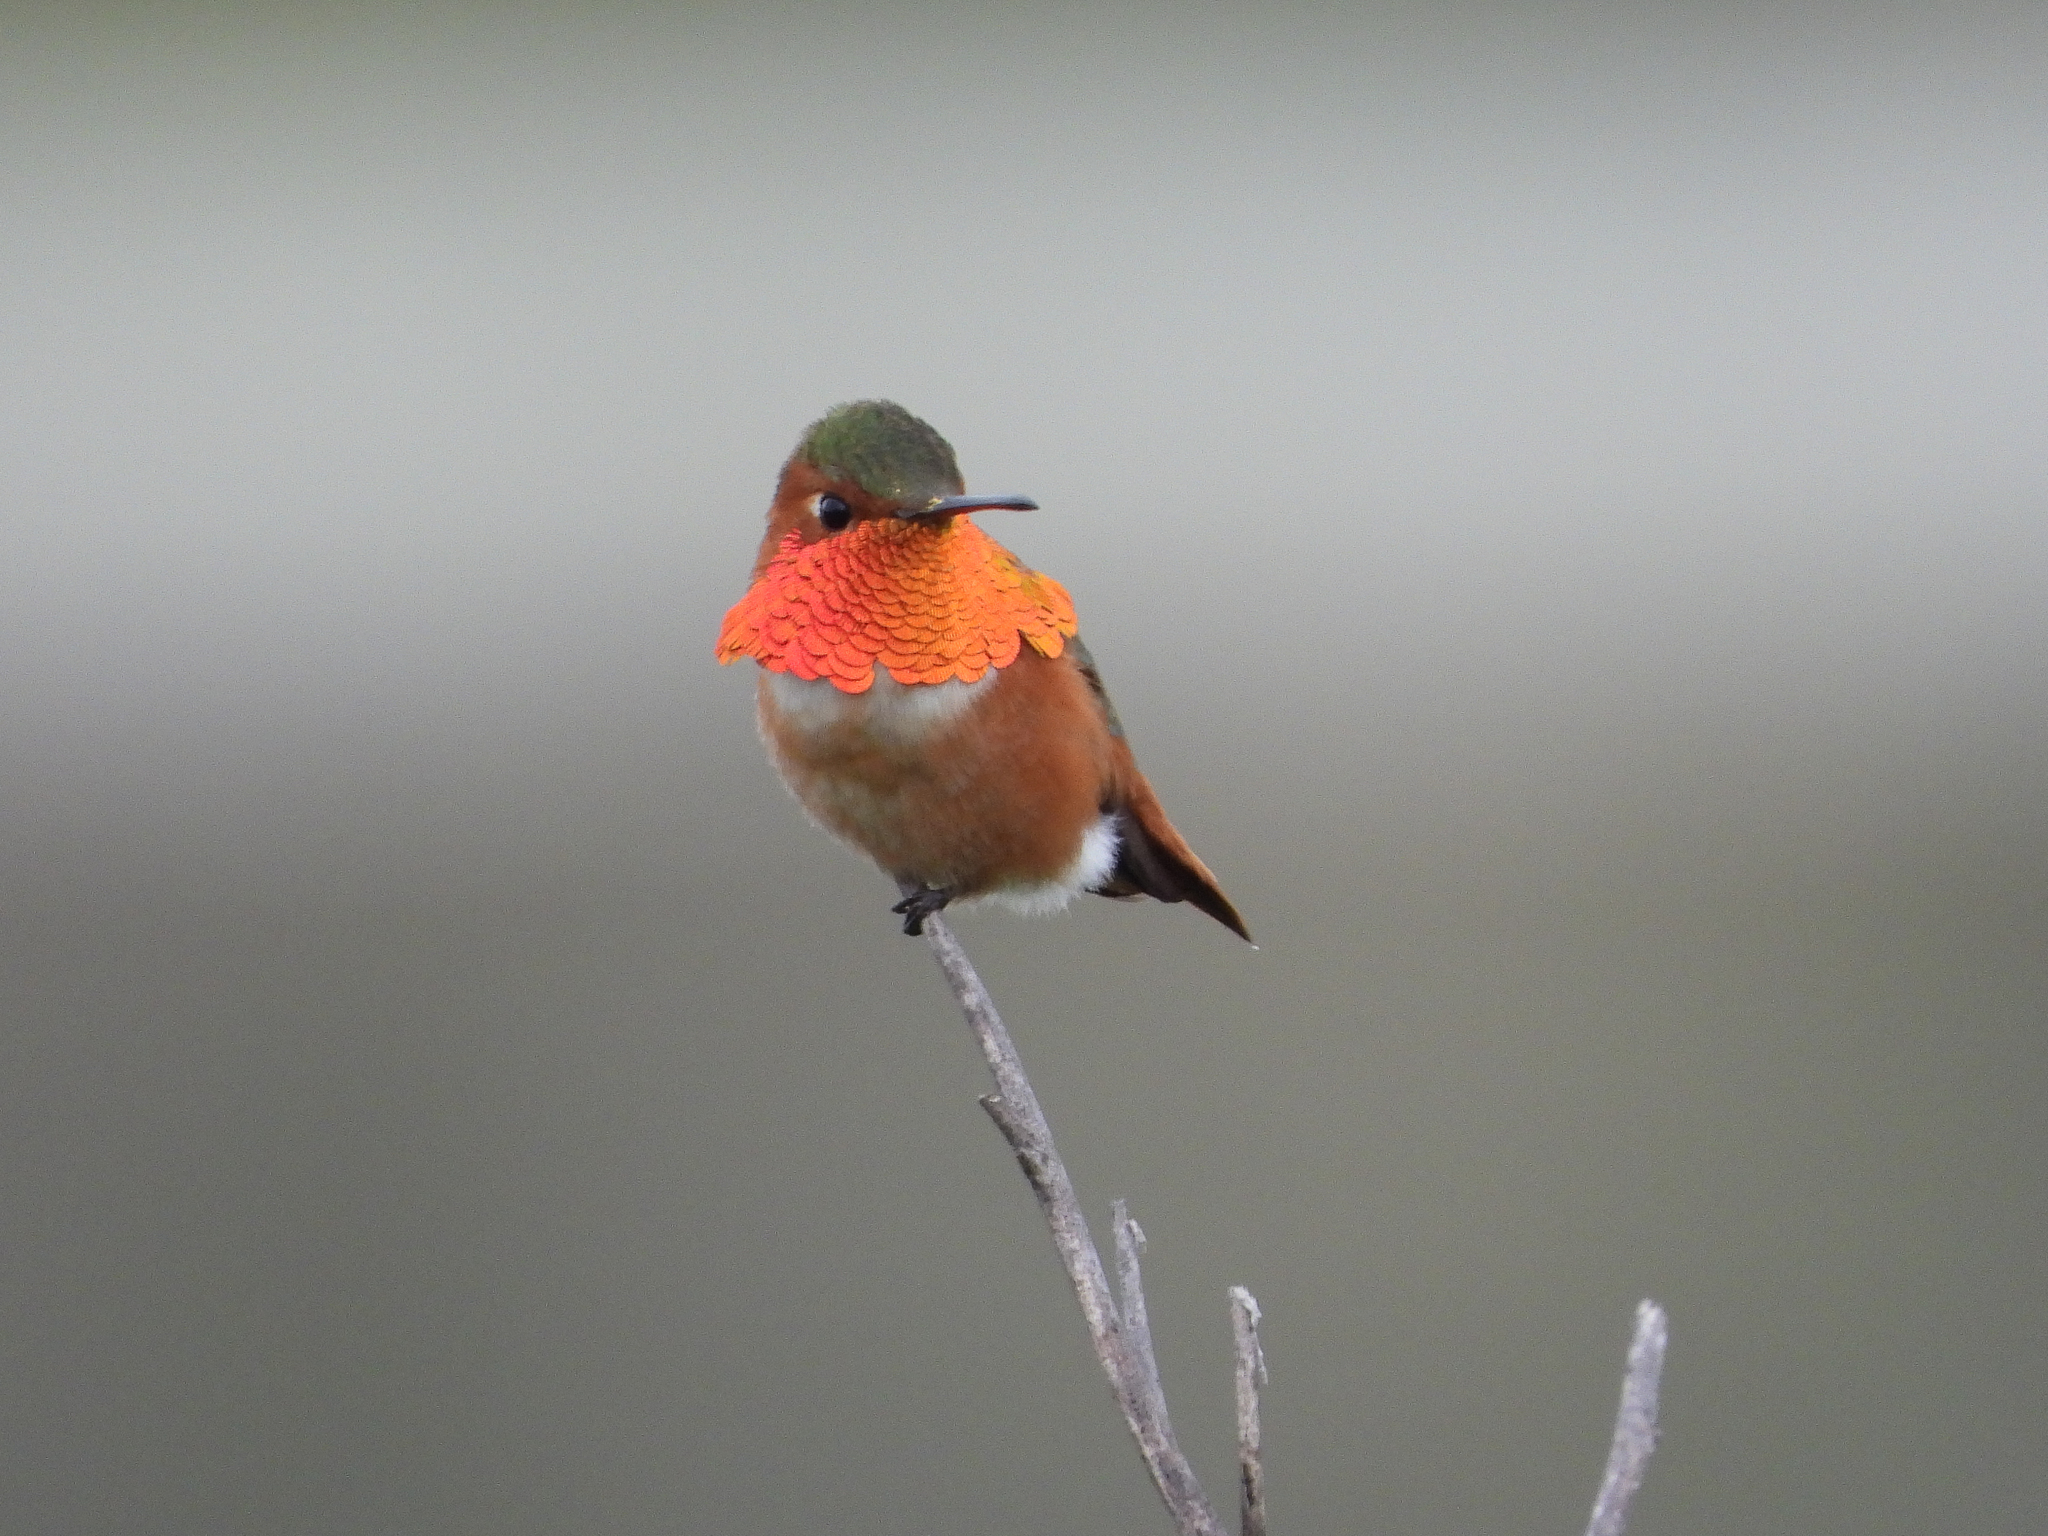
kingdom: Animalia
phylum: Chordata
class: Aves
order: Apodiformes
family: Trochilidae
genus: Selasphorus
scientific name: Selasphorus sasin
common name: Allen's hummingbird
